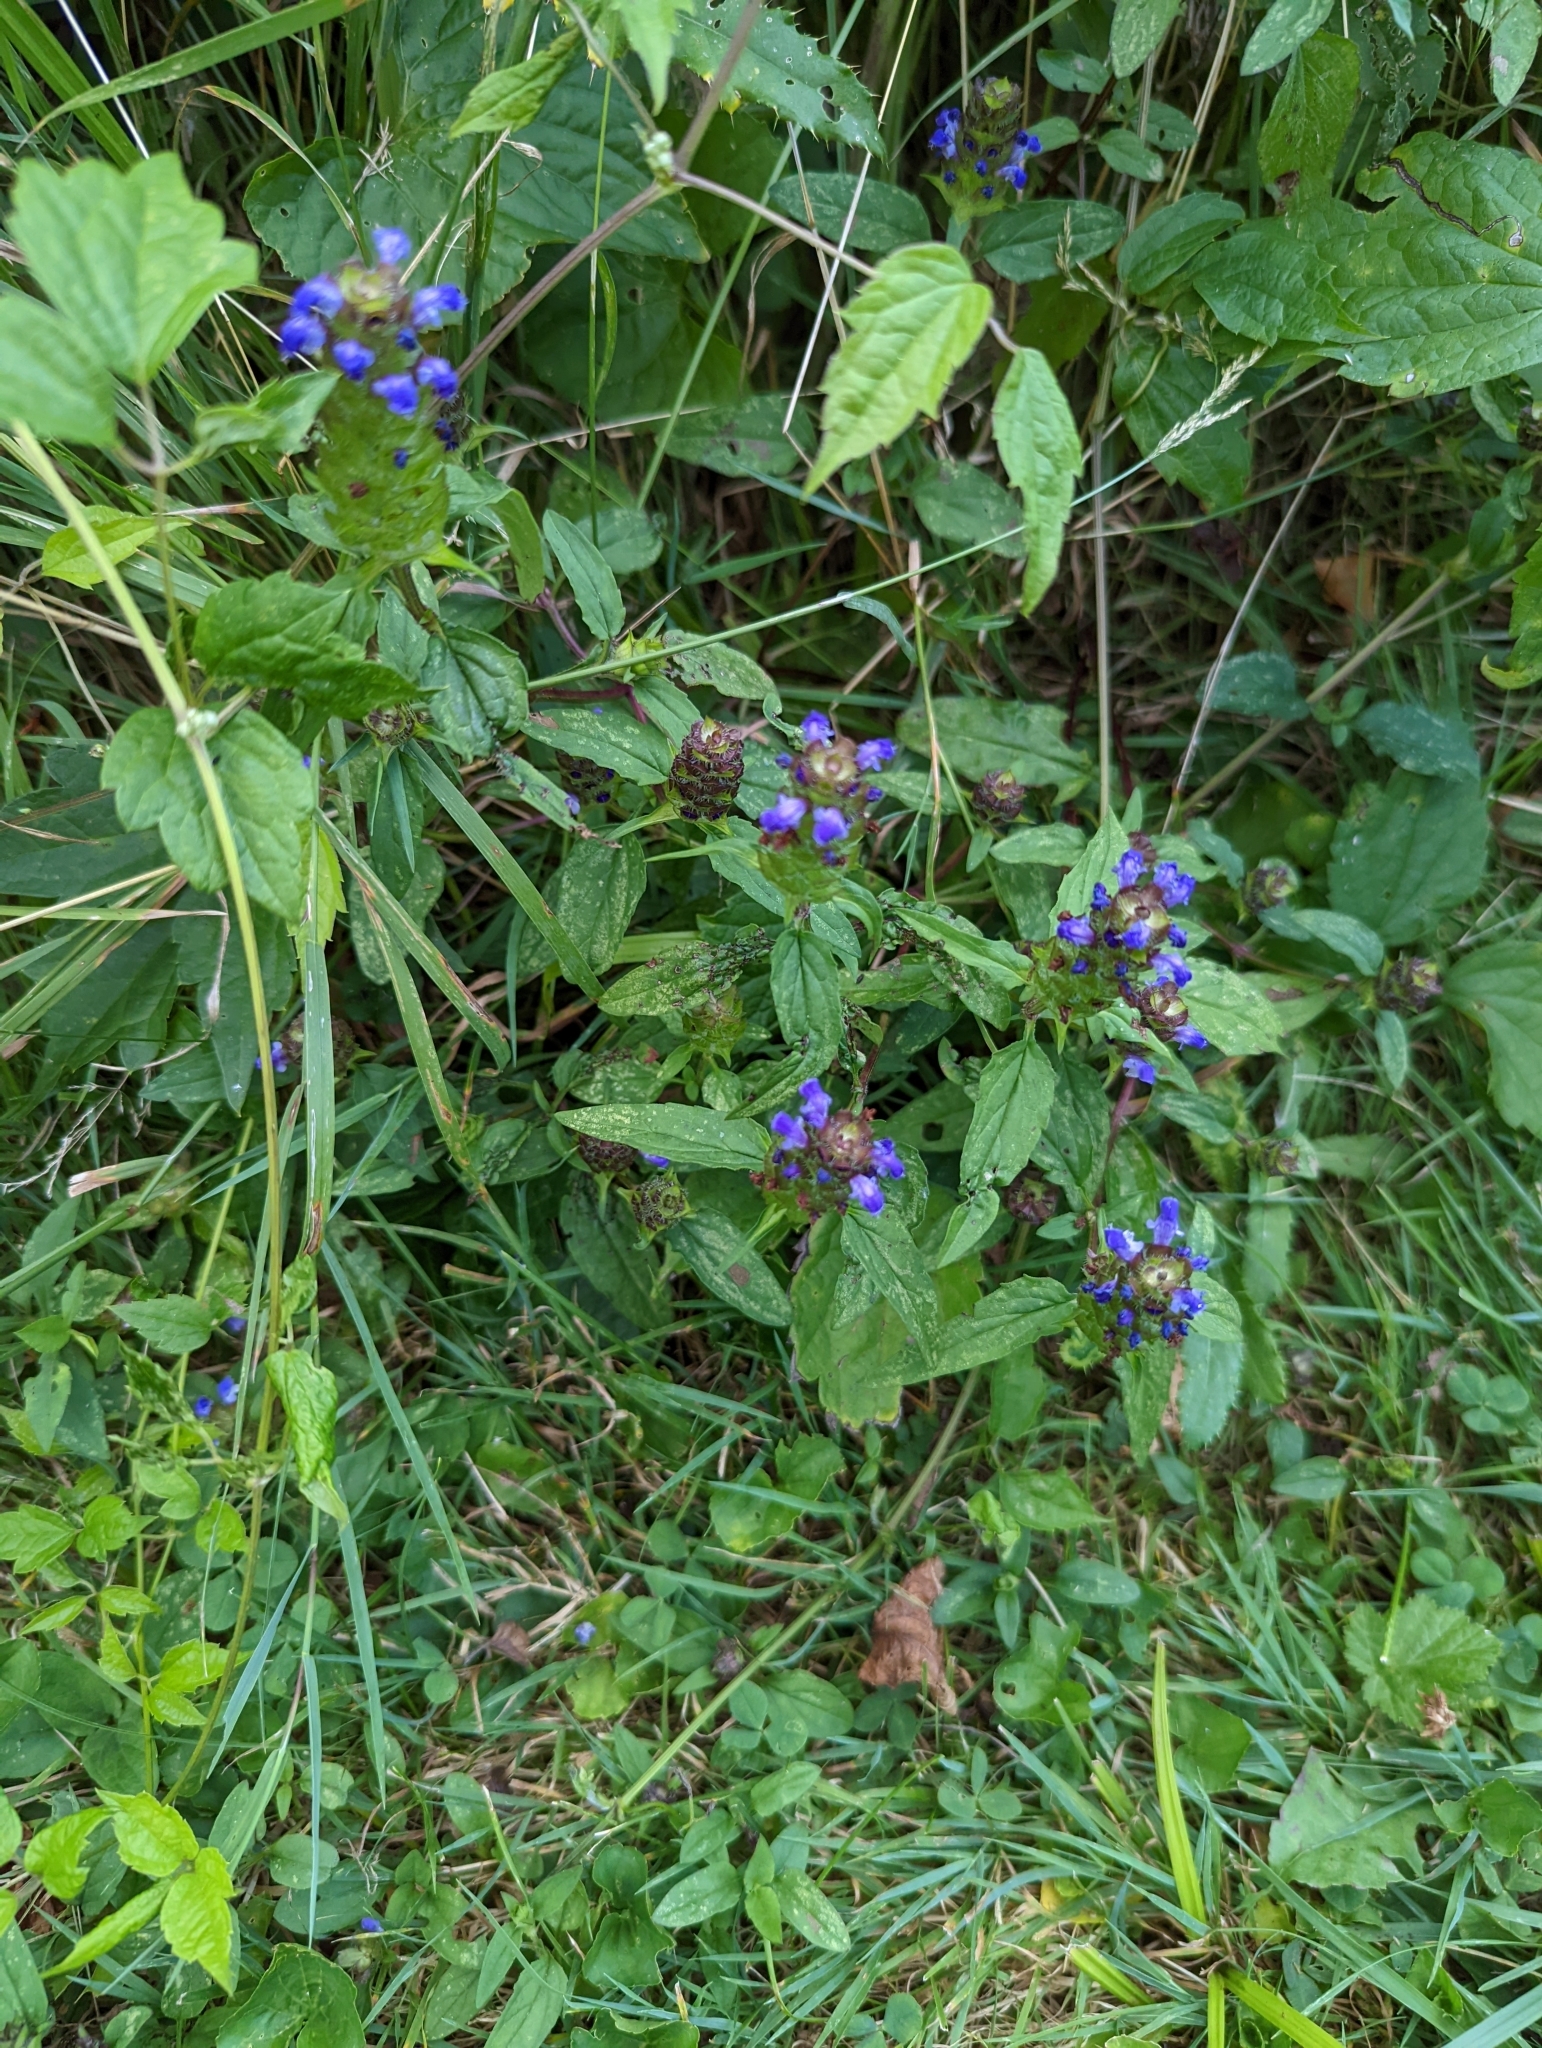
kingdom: Plantae
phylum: Tracheophyta
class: Magnoliopsida
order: Lamiales
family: Lamiaceae
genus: Prunella
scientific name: Prunella vulgaris
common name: Heal-all
